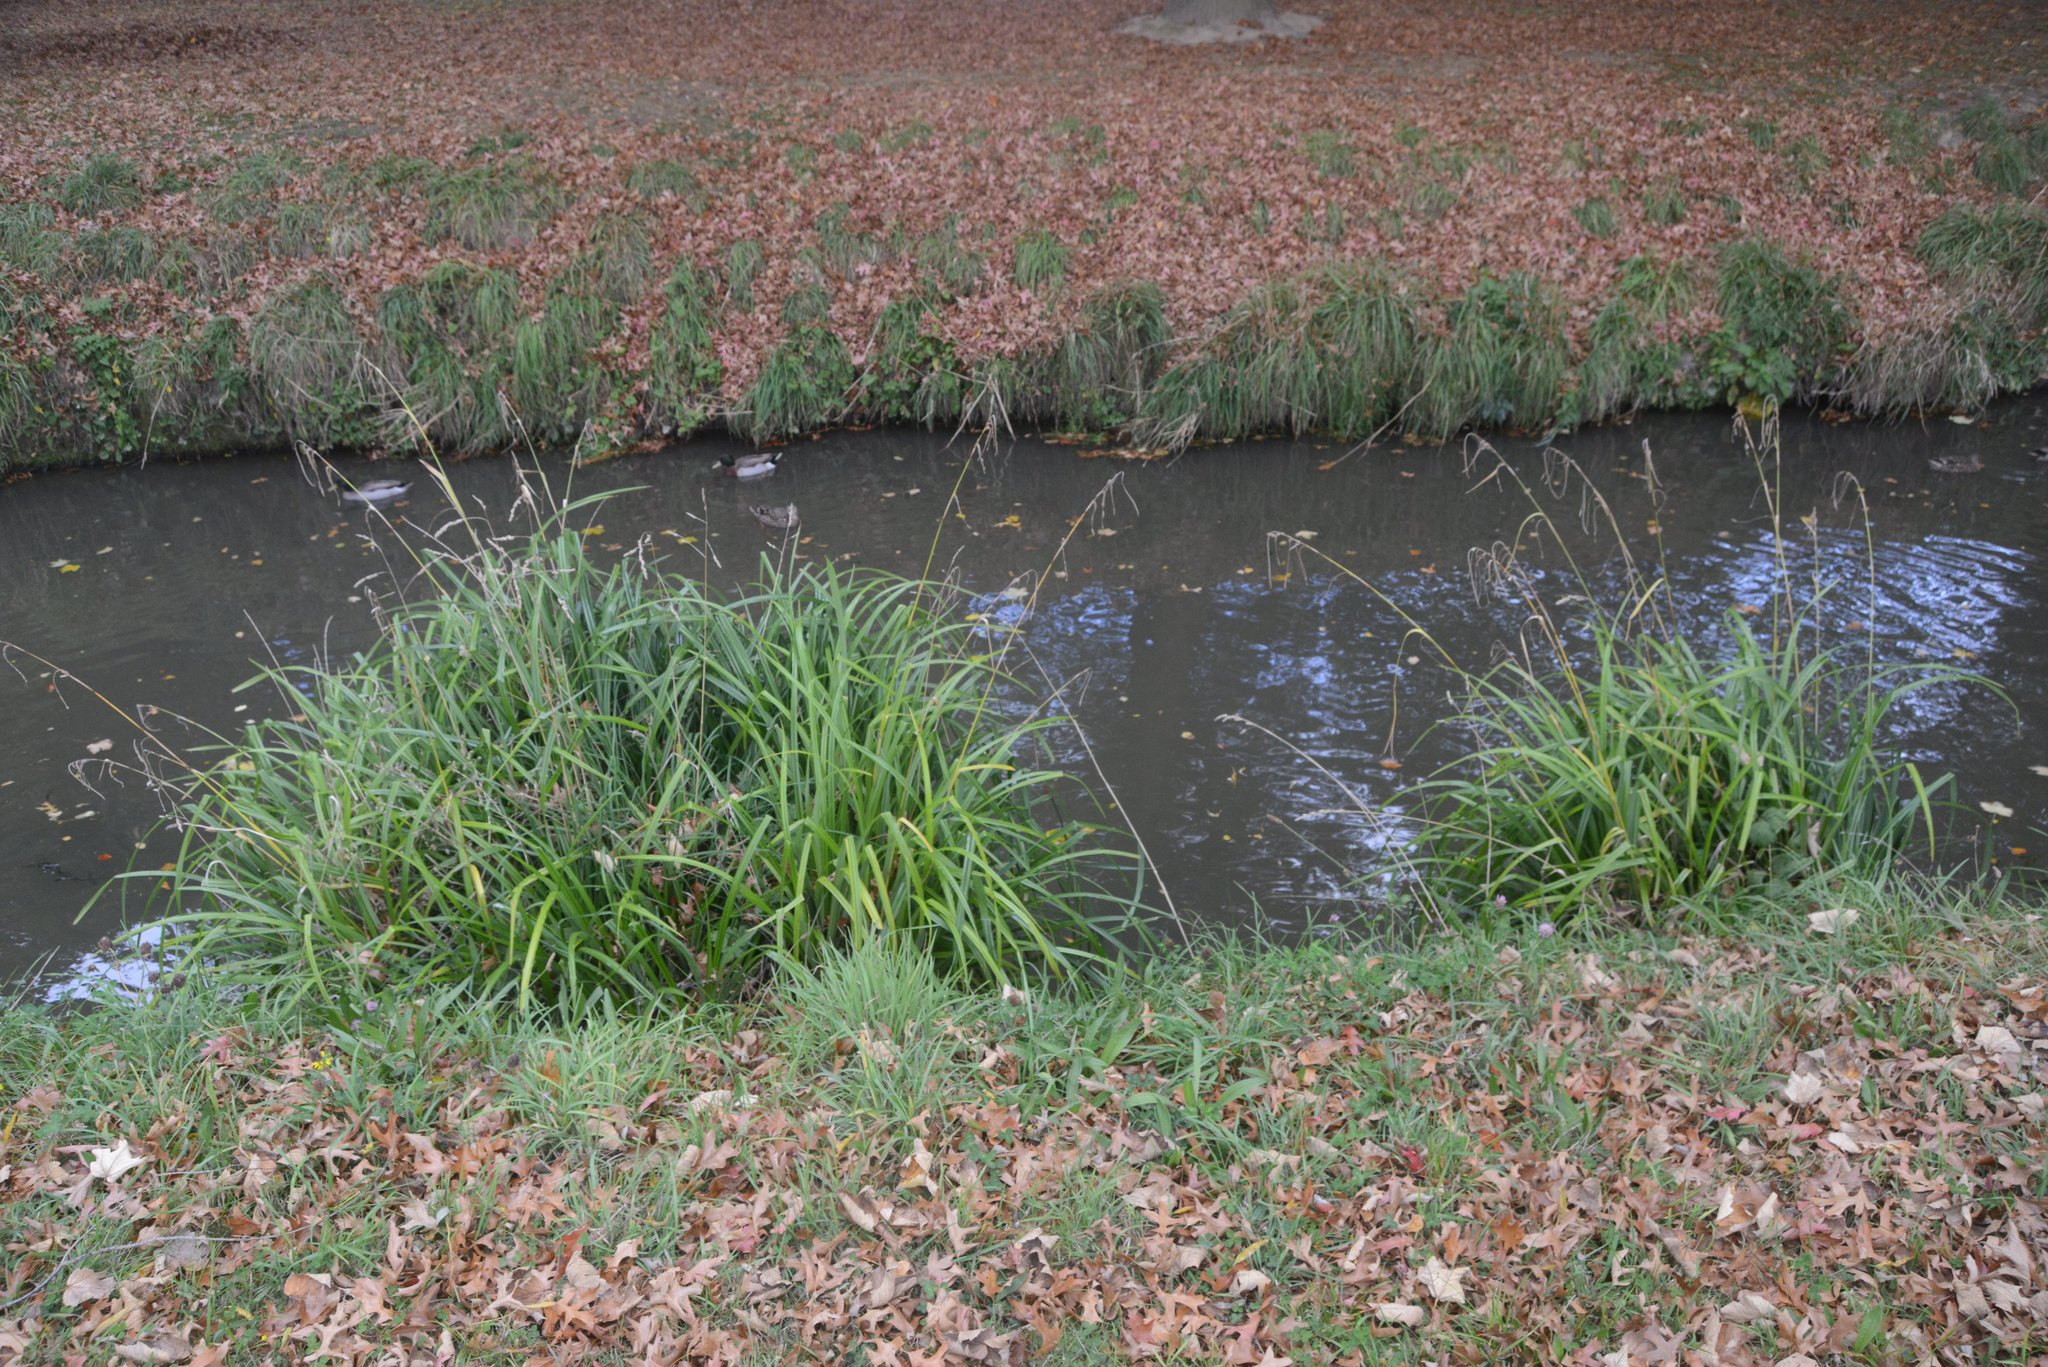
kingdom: Plantae
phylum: Tracheophyta
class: Liliopsida
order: Poales
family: Cyperaceae
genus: Carex
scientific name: Carex pendula
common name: Pendulous sedge
